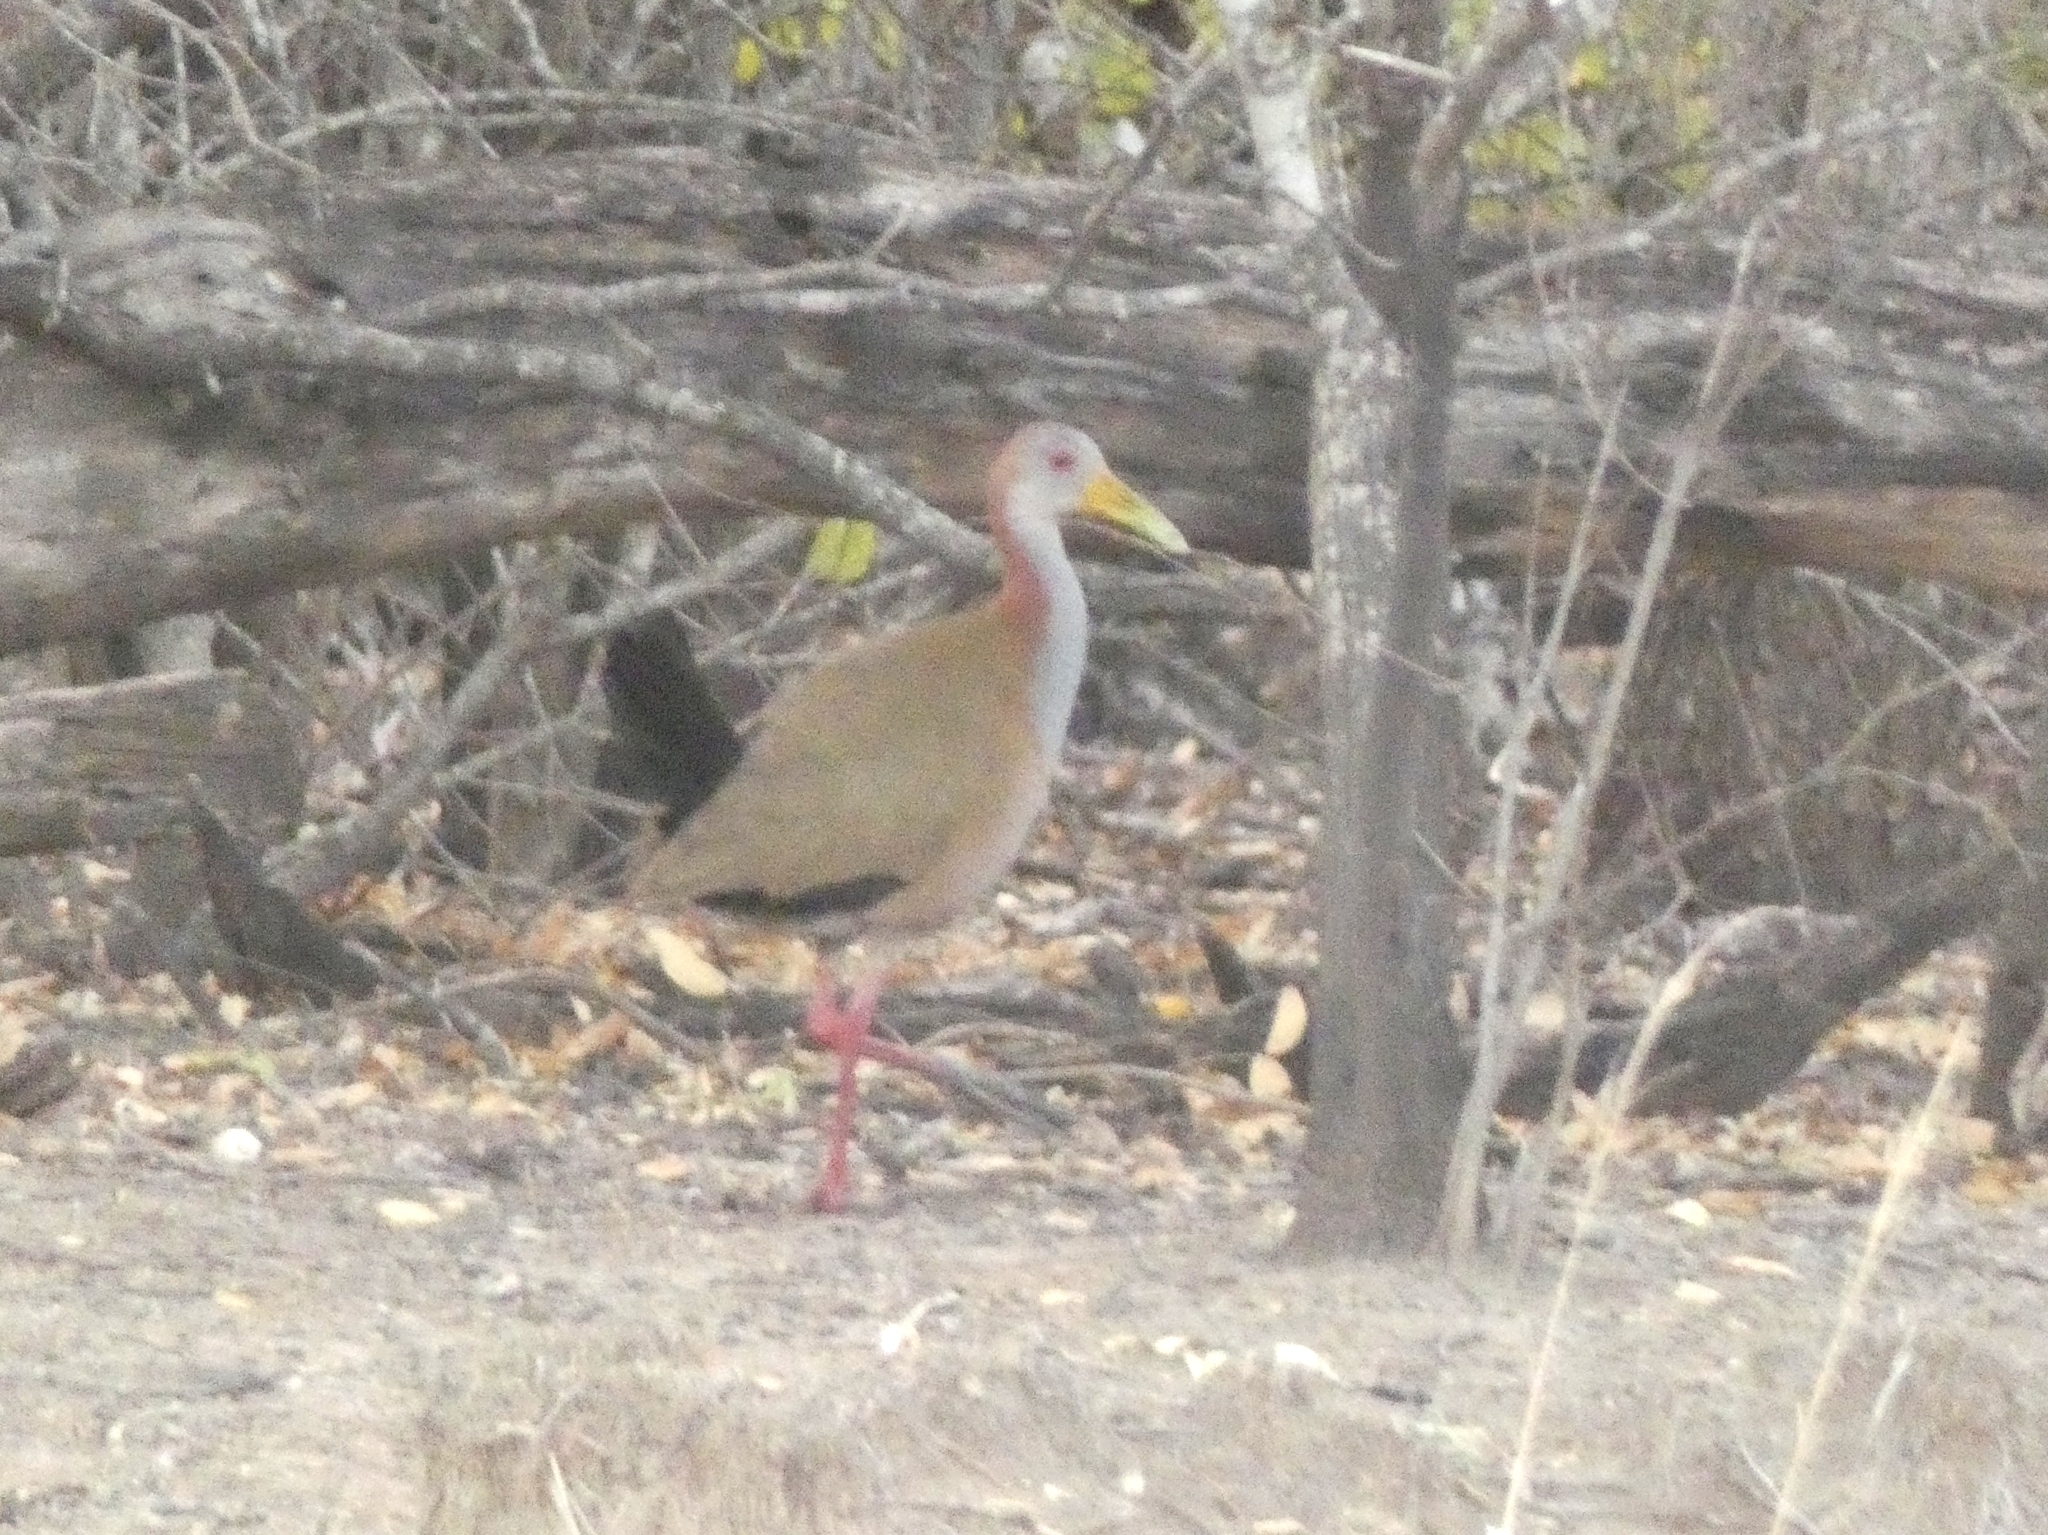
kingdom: Animalia
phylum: Chordata
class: Aves
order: Gruiformes
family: Rallidae
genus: Aramides
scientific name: Aramides ypecaha
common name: Giant wood rail
